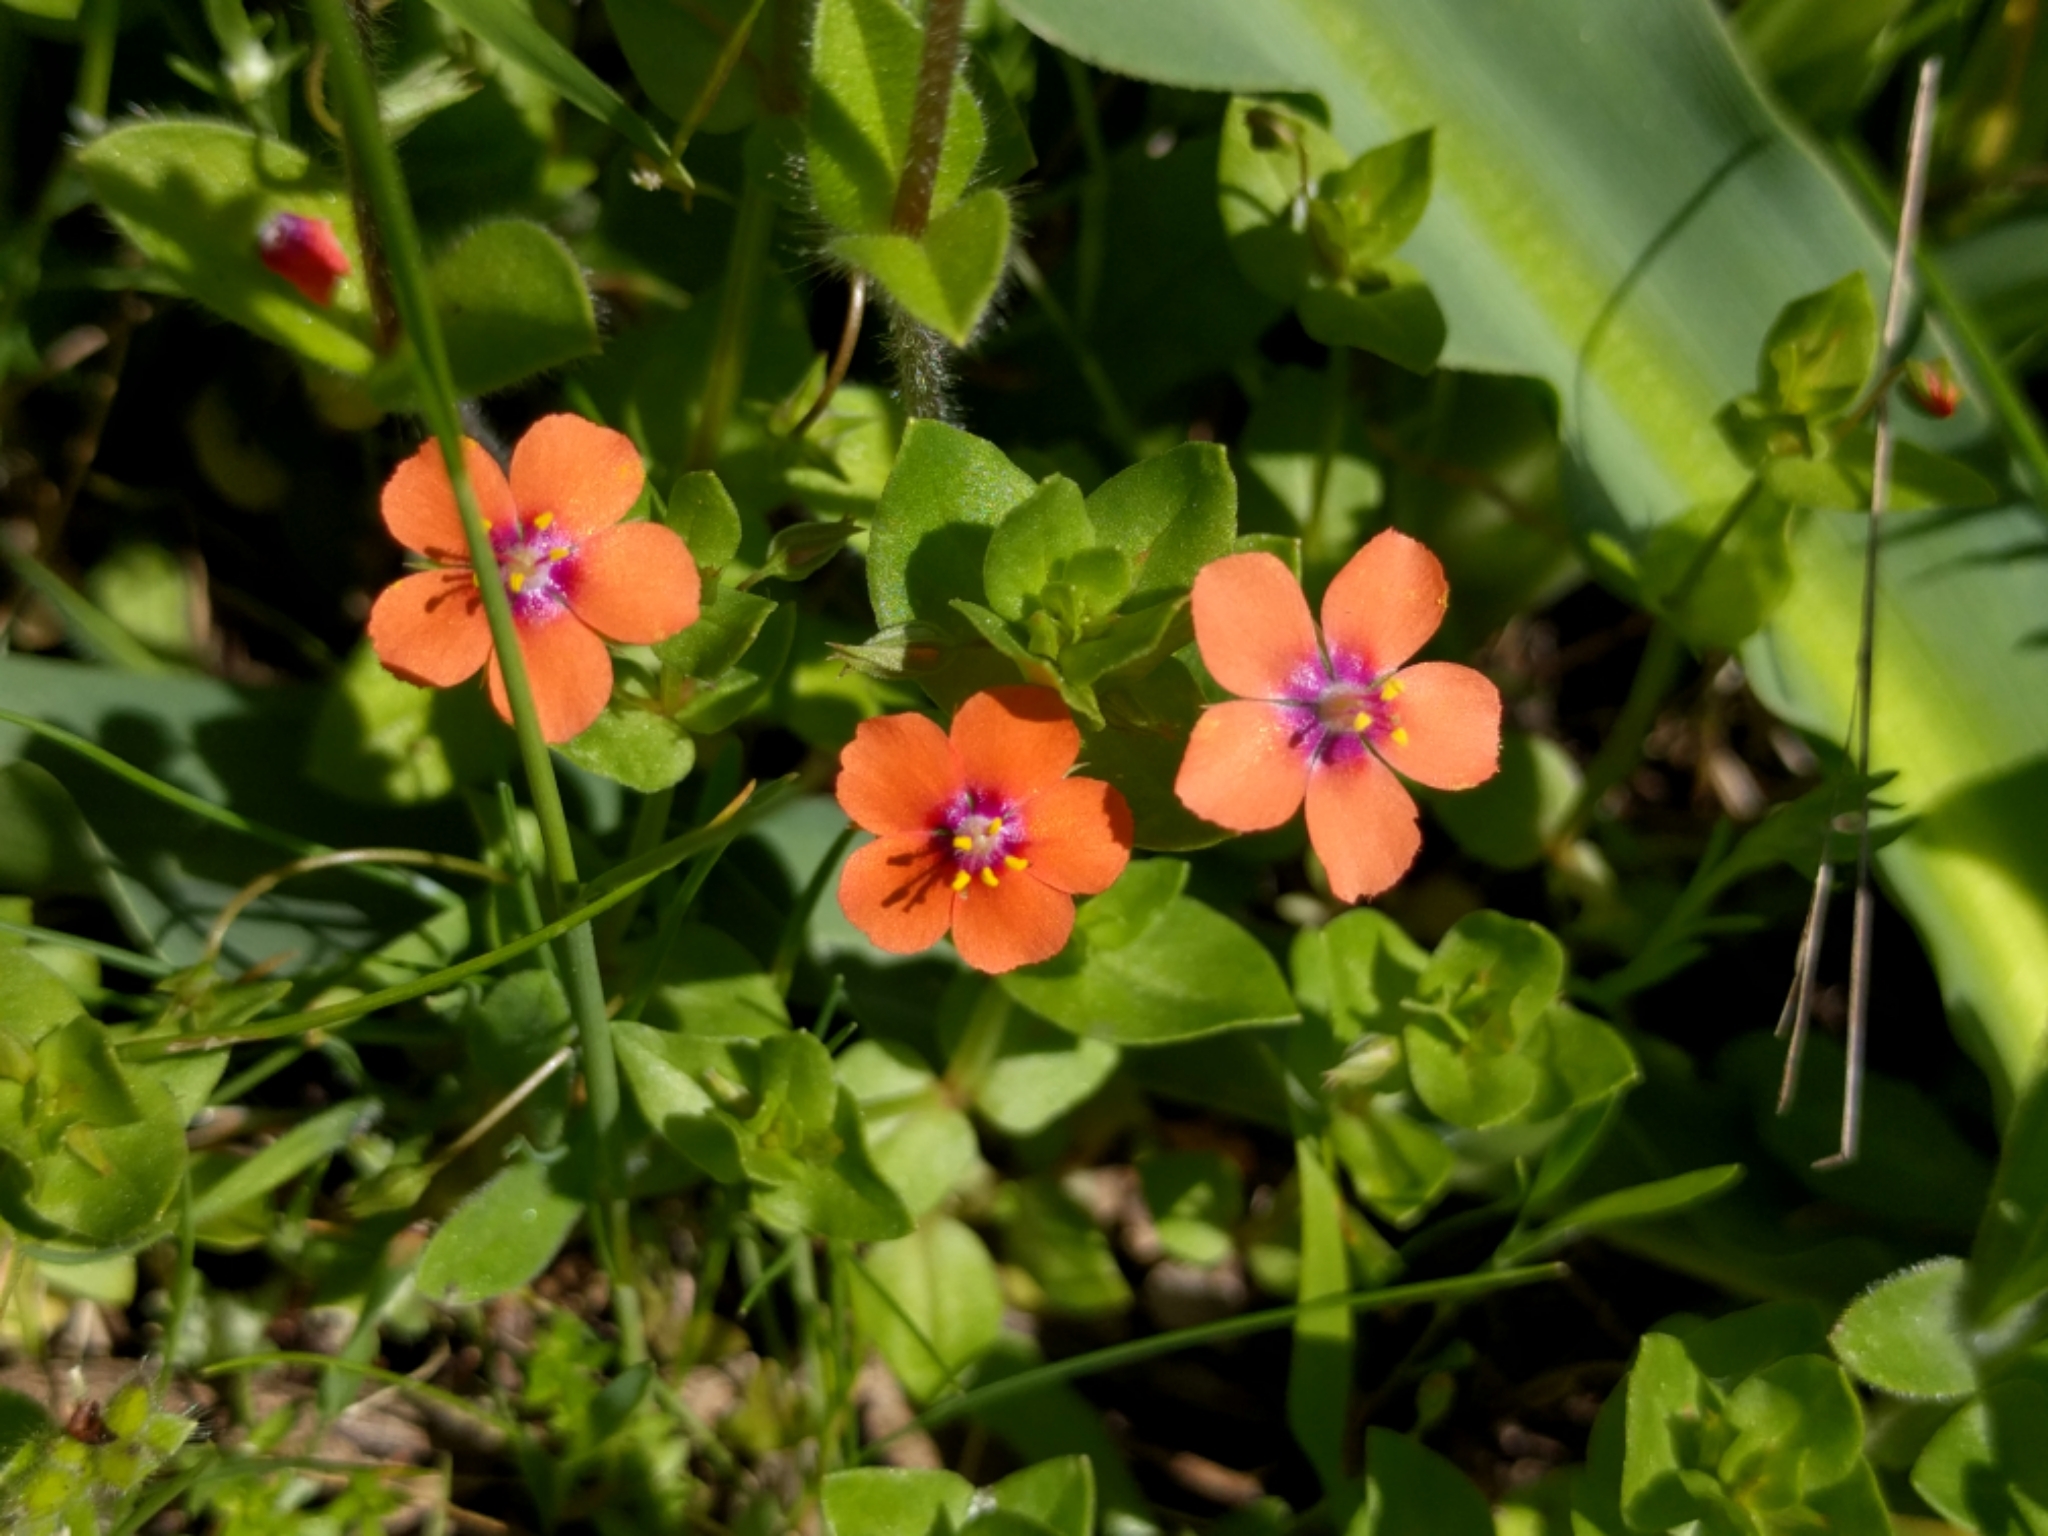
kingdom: Plantae
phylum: Tracheophyta
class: Magnoliopsida
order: Ericales
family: Primulaceae
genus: Lysimachia
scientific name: Lysimachia arvensis
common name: Scarlet pimpernel
